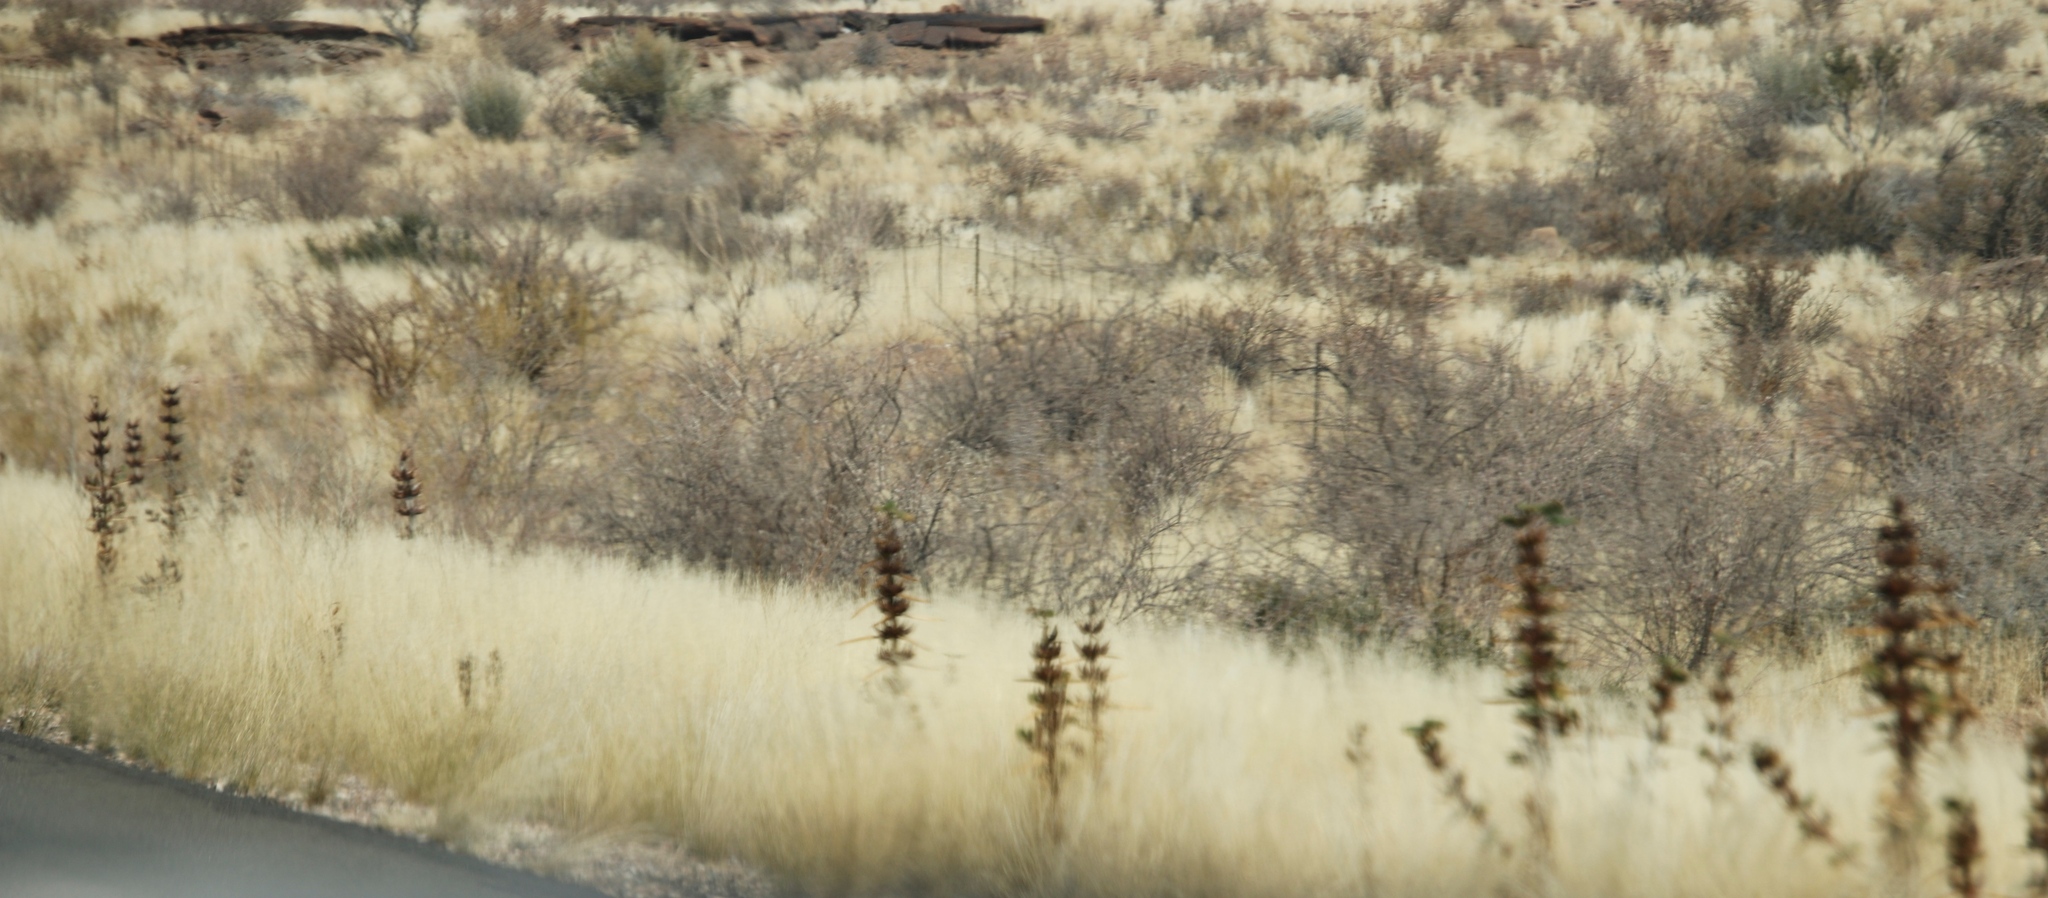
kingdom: Plantae
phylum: Tracheophyta
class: Magnoliopsida
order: Lamiales
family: Pedaliaceae
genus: Rogeria
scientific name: Rogeria longiflora
